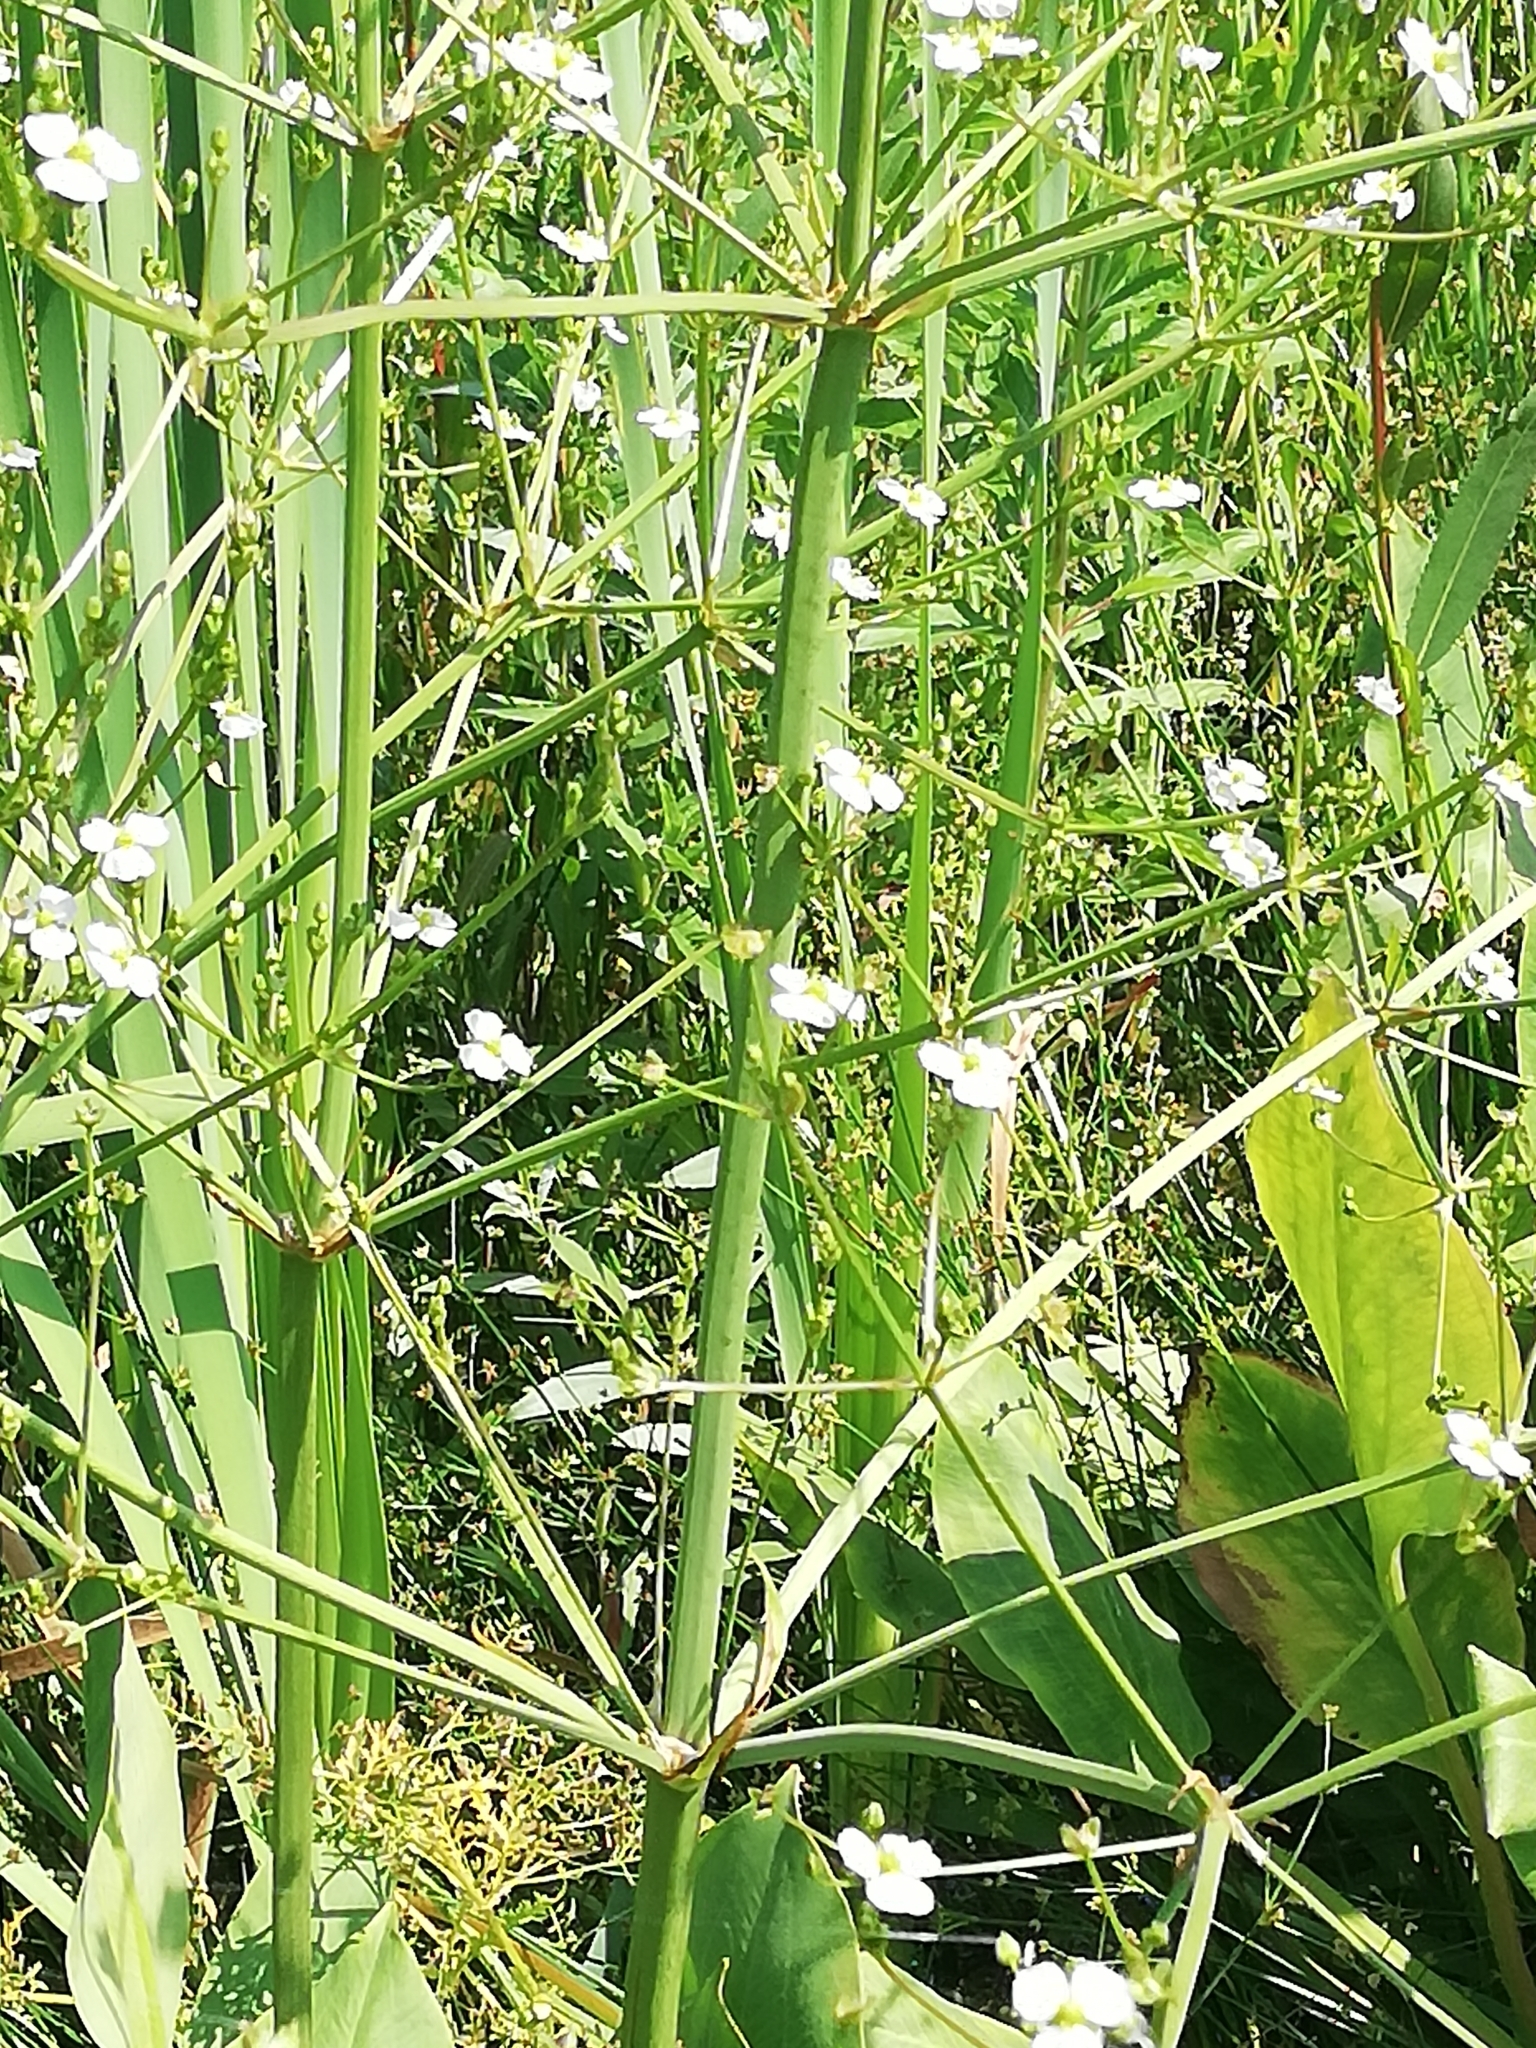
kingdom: Plantae
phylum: Tracheophyta
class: Liliopsida
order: Alismatales
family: Alismataceae
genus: Alisma
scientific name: Alisma plantago-aquatica
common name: Water-plantain
